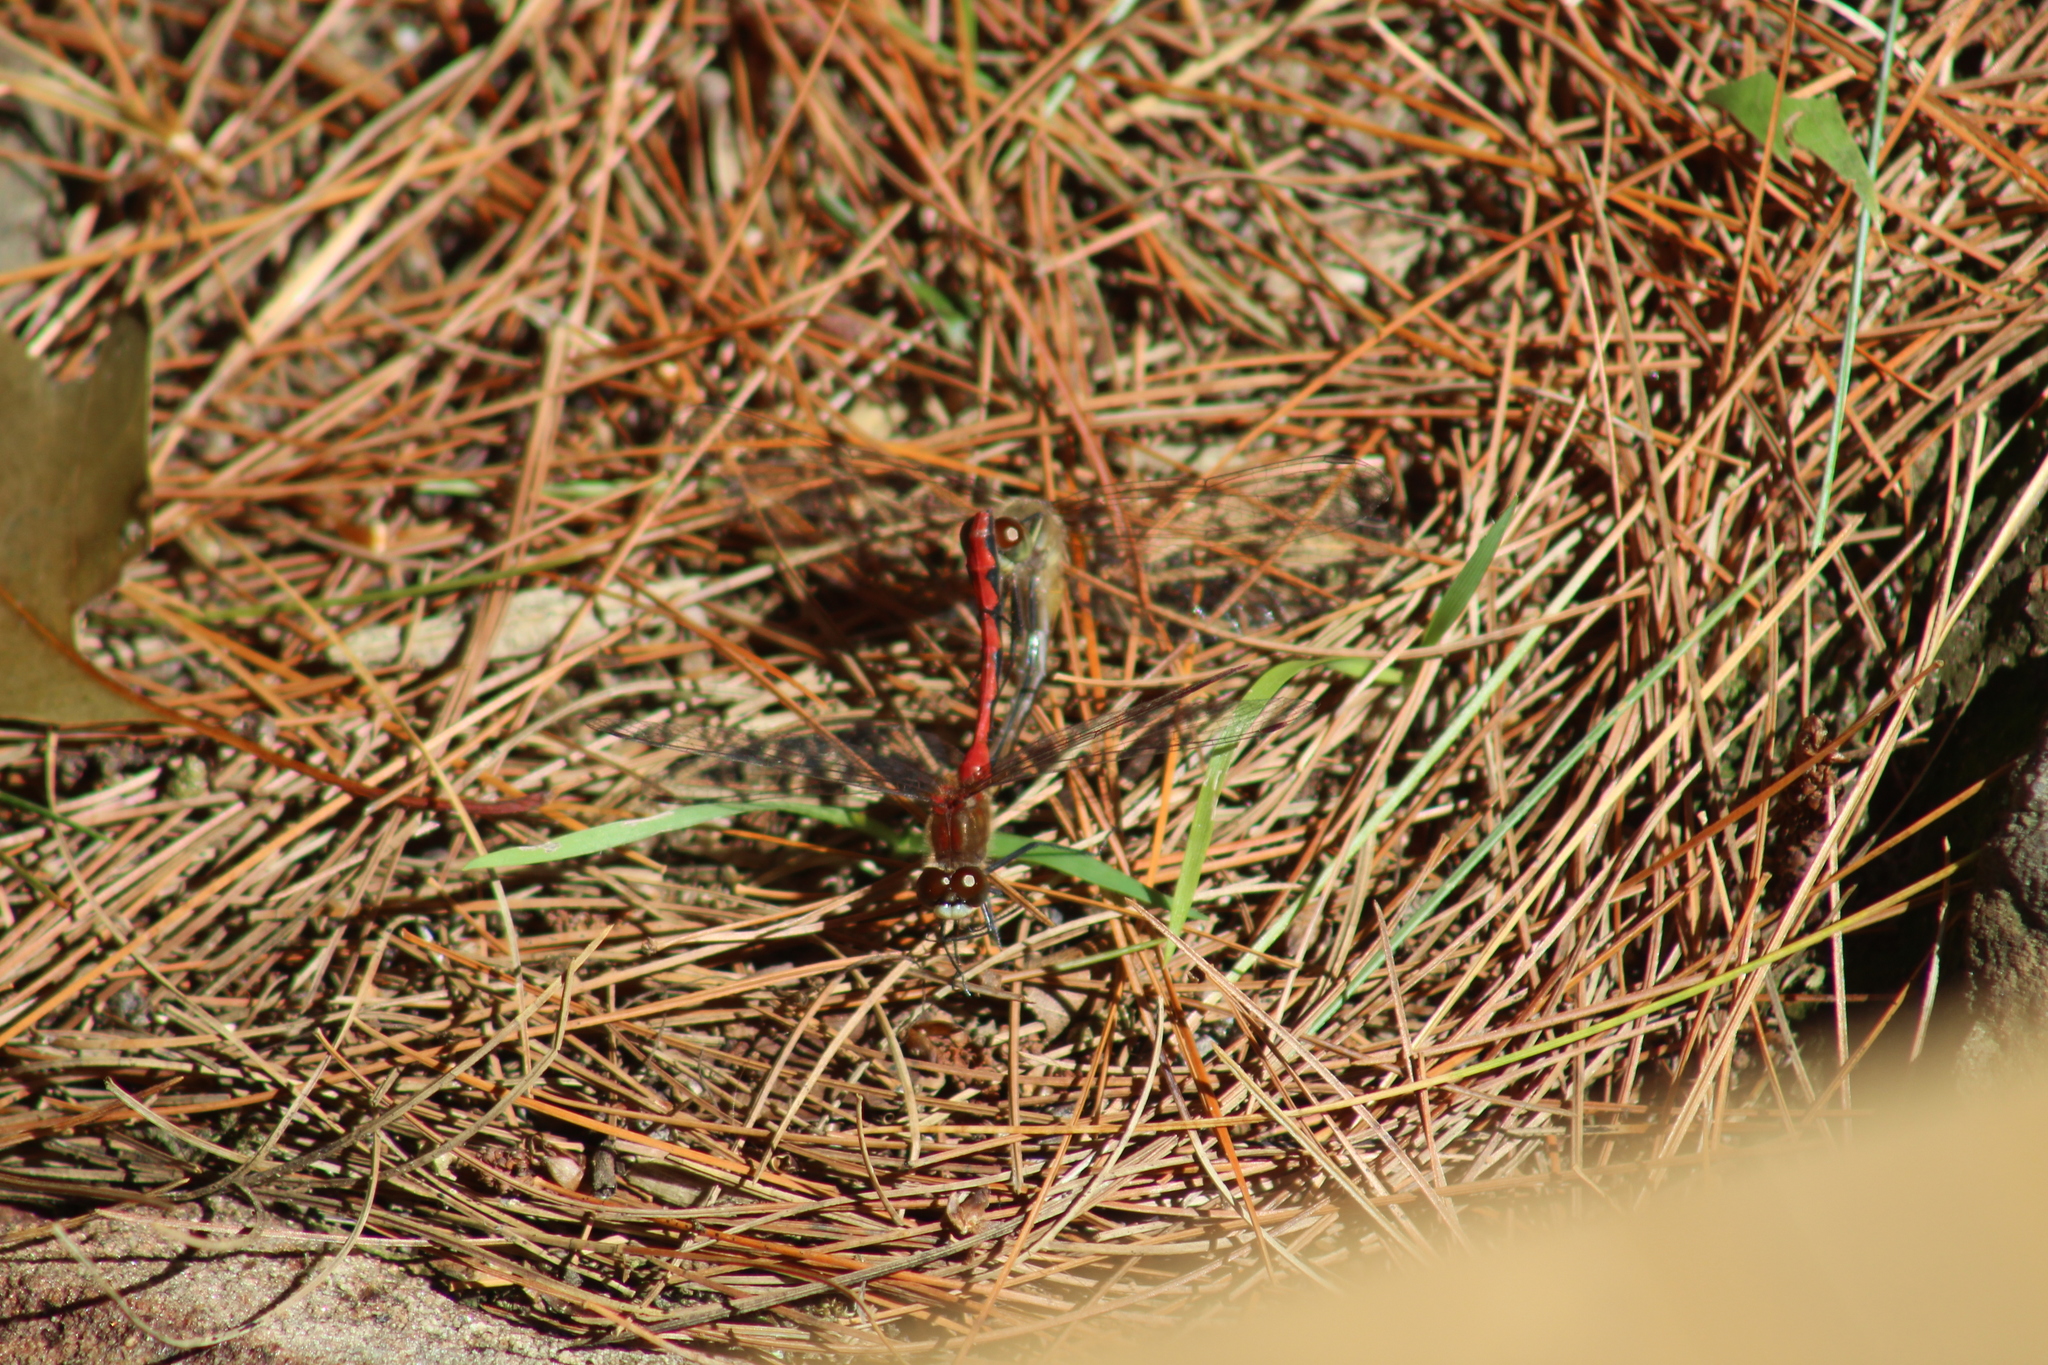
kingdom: Animalia
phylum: Arthropoda
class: Insecta
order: Odonata
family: Libellulidae
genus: Sympetrum
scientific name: Sympetrum obtrusum
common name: White-faced meadowhawk
